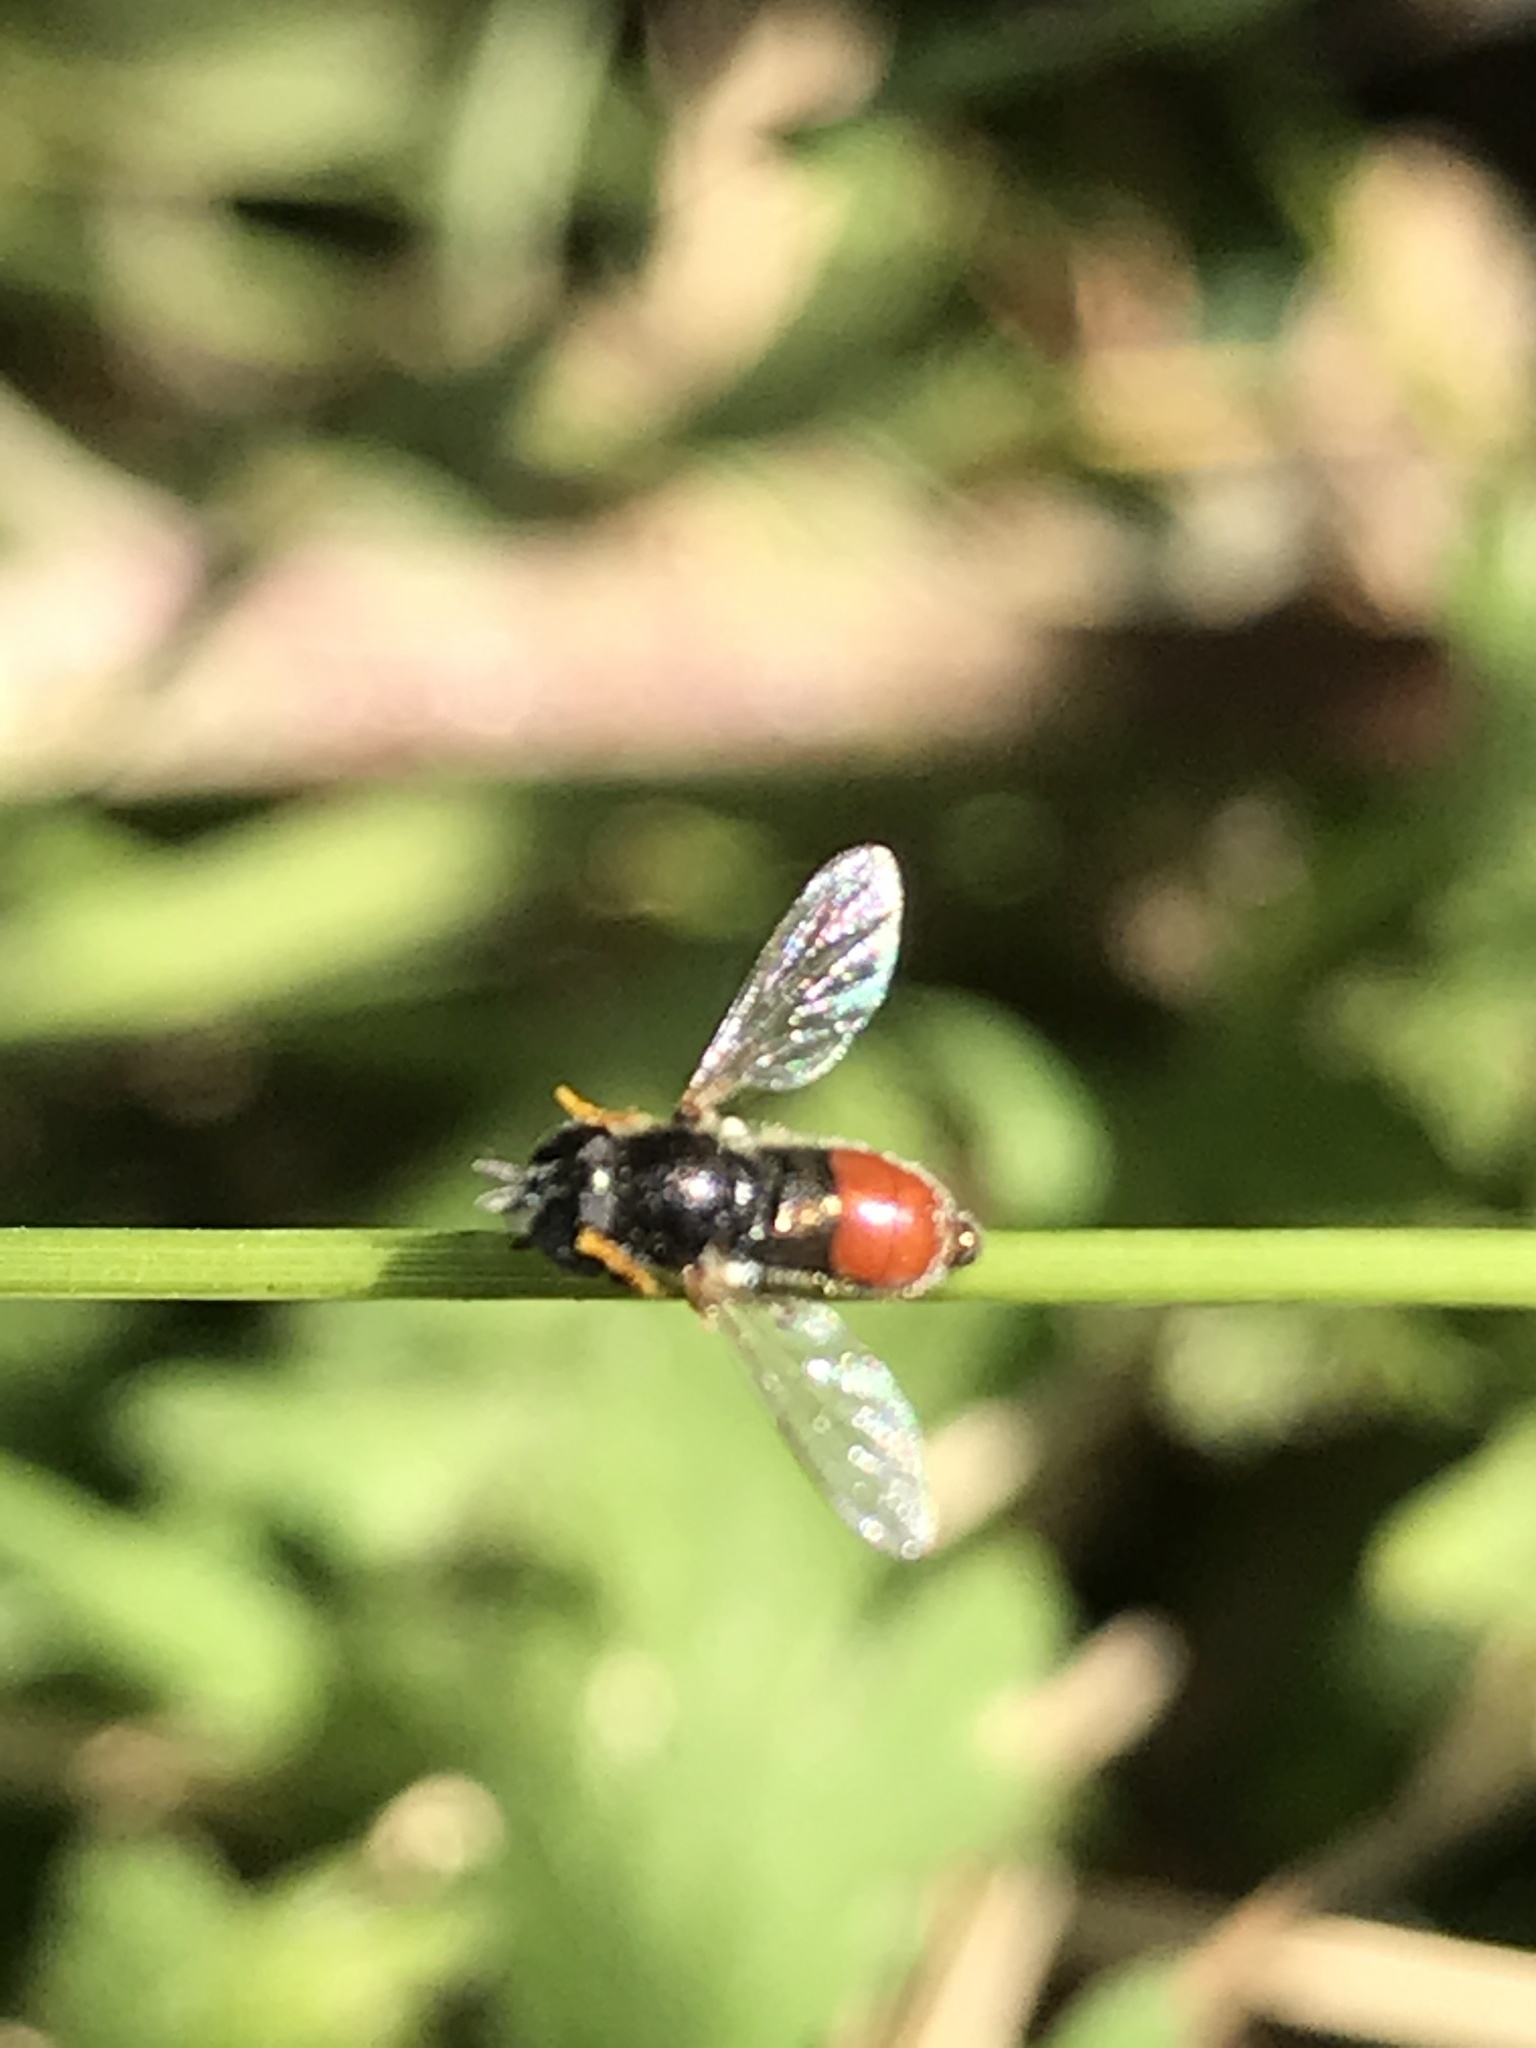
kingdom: Animalia
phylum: Arthropoda
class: Insecta
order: Diptera
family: Syrphidae
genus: Paragus
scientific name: Paragus haemorrhous
